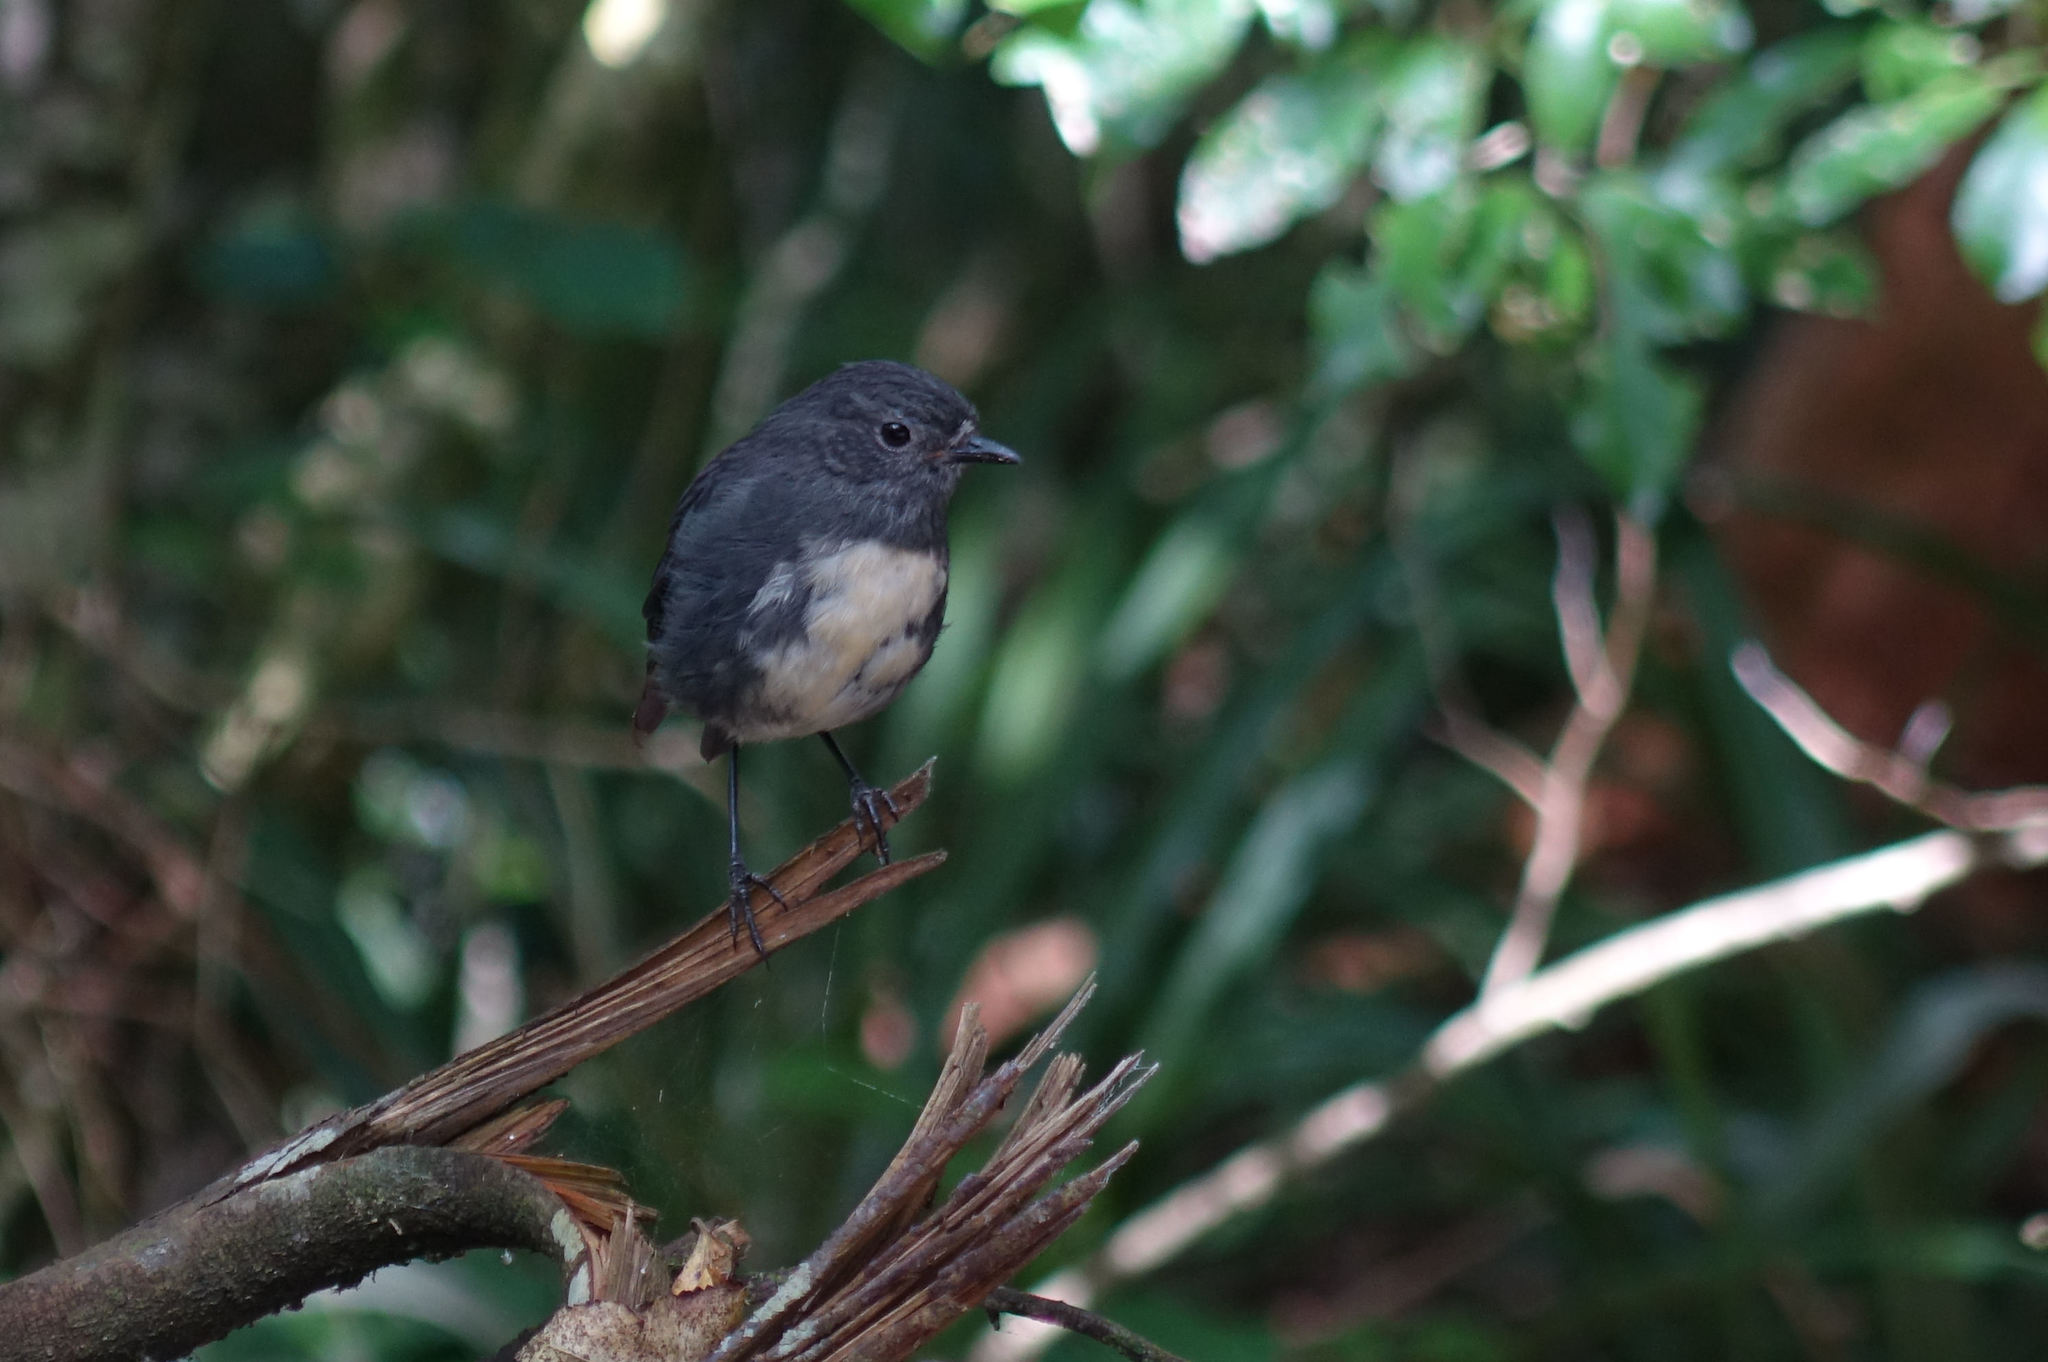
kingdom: Animalia
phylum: Chordata
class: Aves
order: Passeriformes
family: Petroicidae
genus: Petroica
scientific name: Petroica australis
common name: New zealand robin
